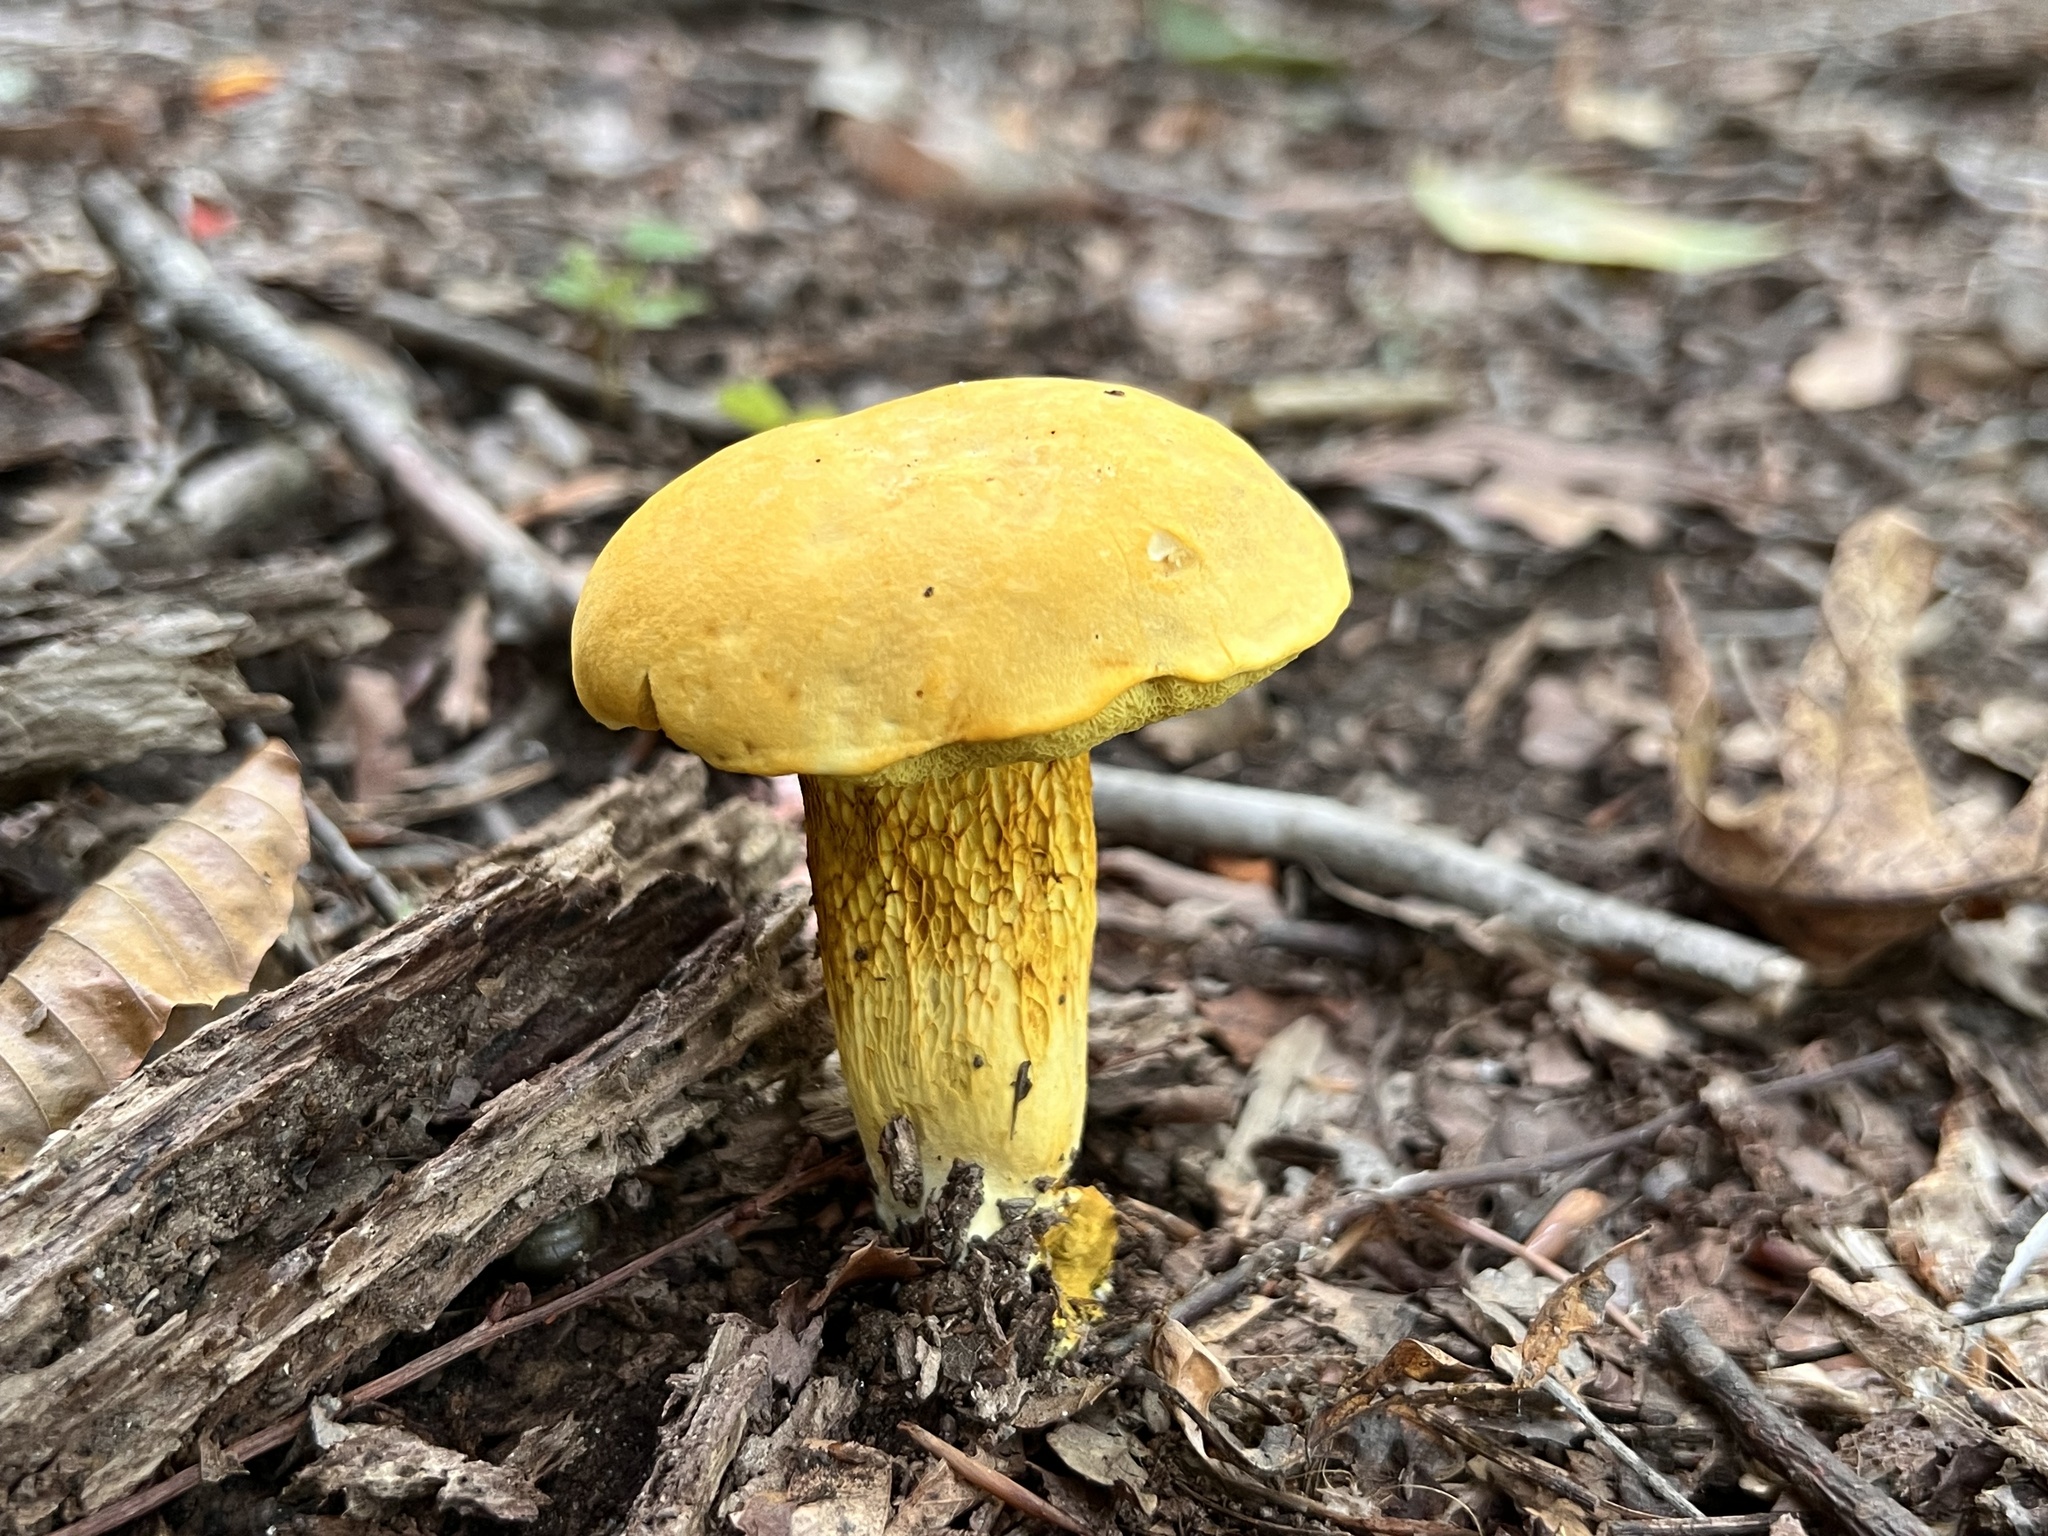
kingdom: Fungi
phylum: Basidiomycota
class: Agaricomycetes
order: Boletales
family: Boletaceae
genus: Retiboletus
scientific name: Retiboletus ornatipes
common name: Ornate-stalked bolete
